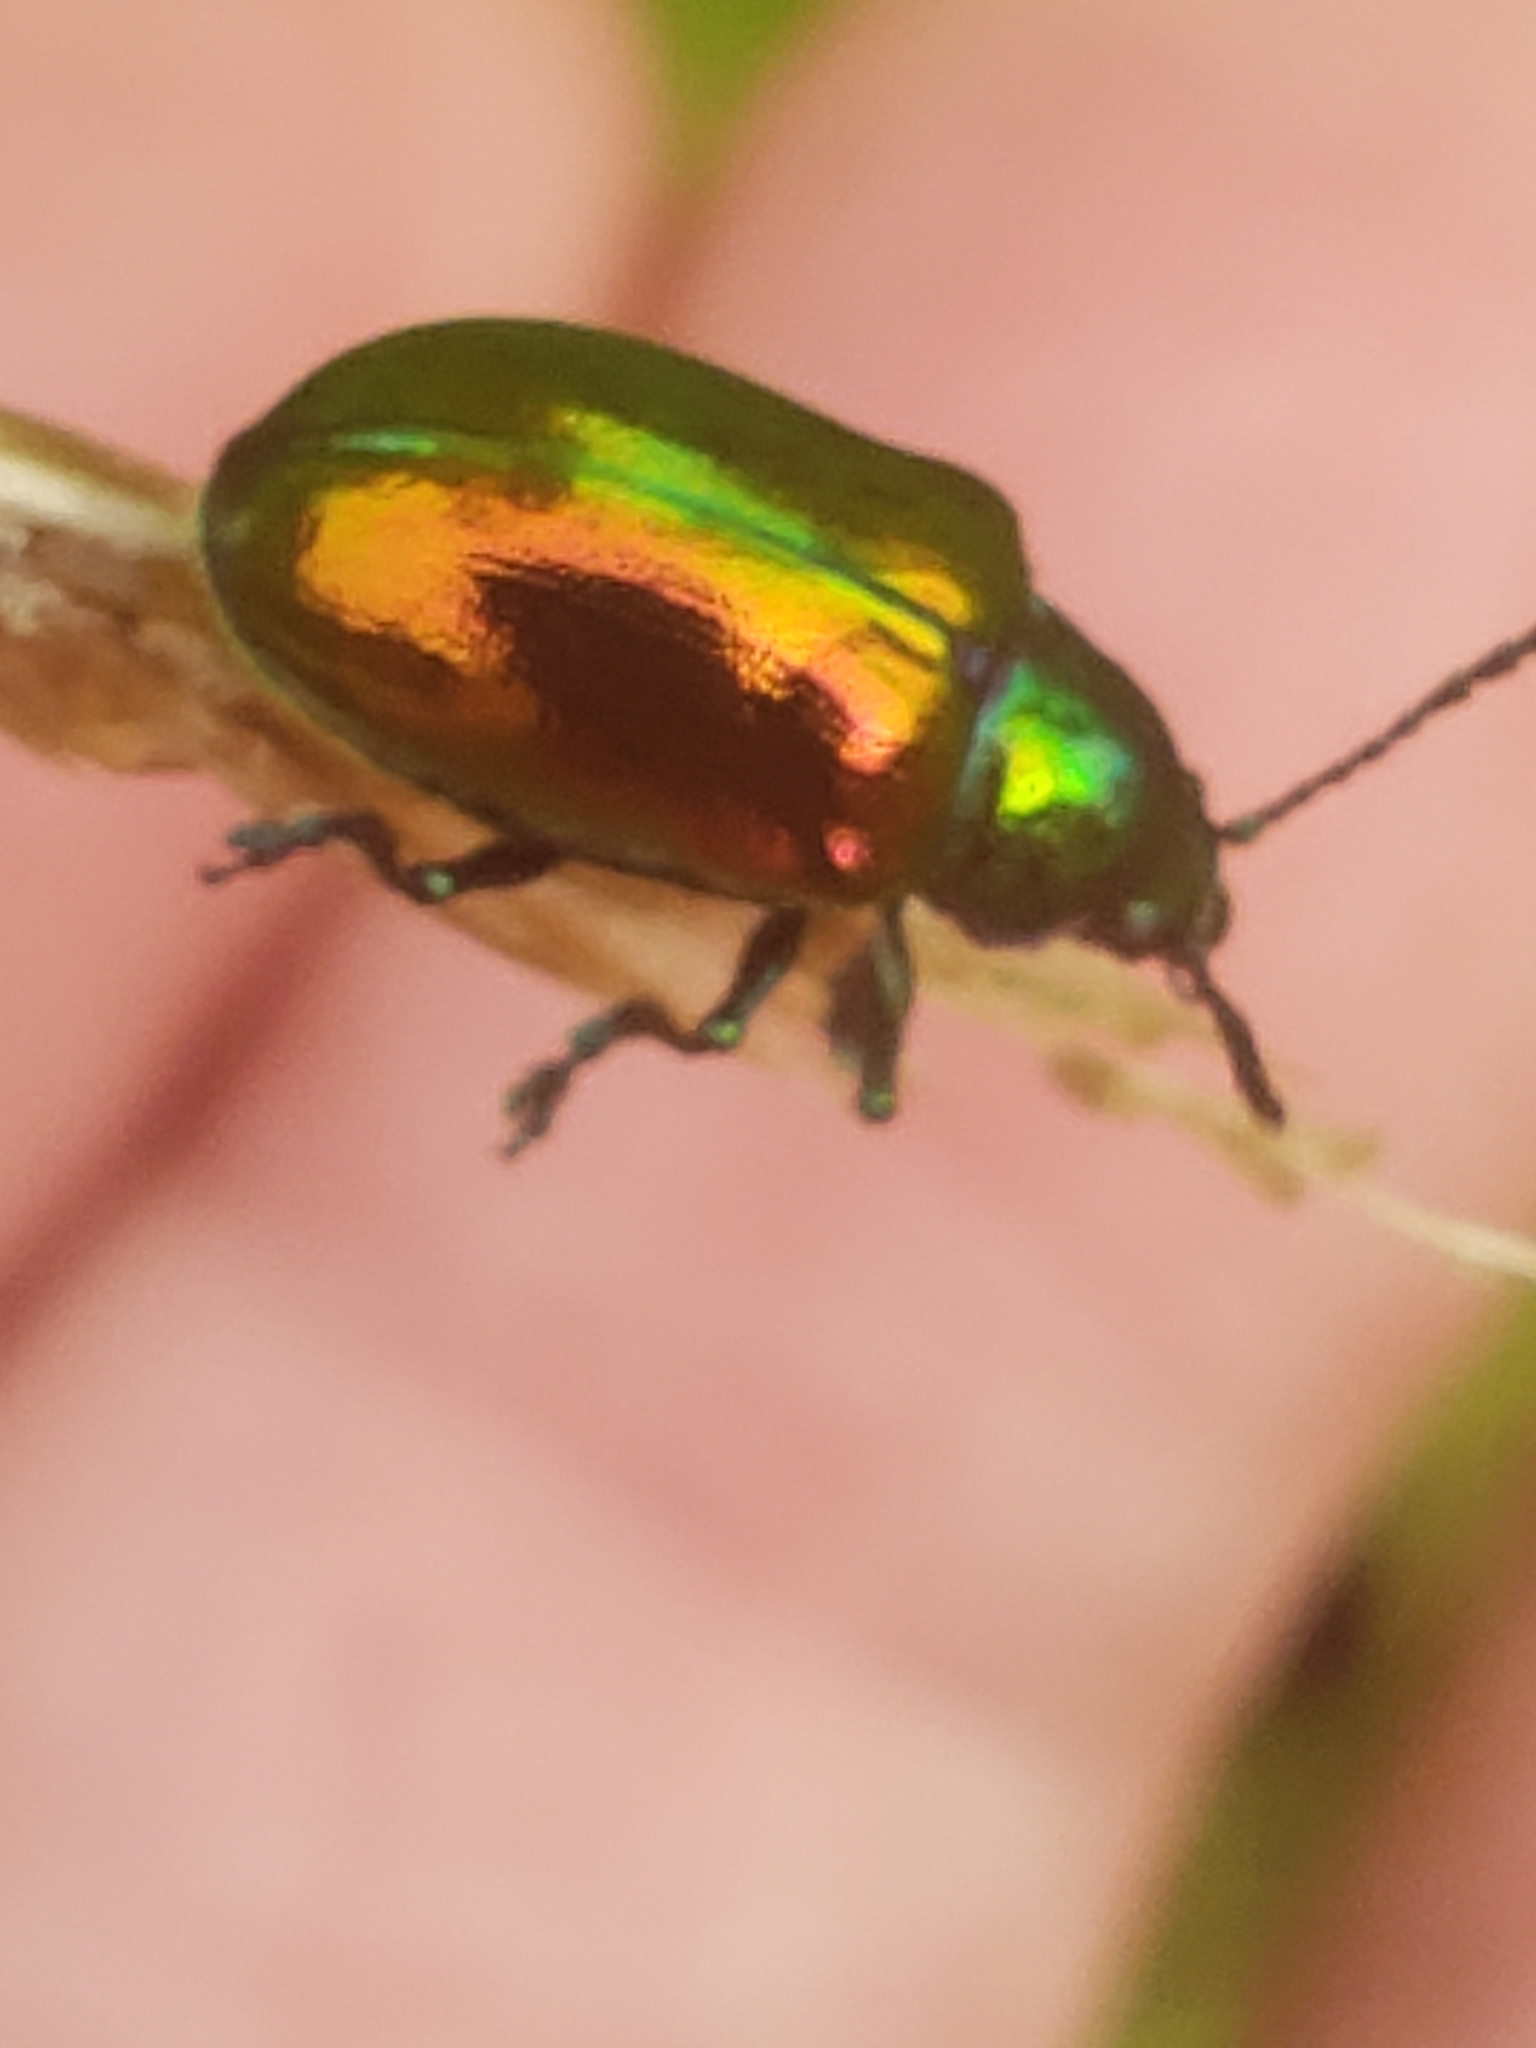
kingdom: Animalia
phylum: Arthropoda
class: Insecta
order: Coleoptera
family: Chrysomelidae
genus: Chrysochus
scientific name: Chrysochus auratus
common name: Dogbane leaf beetle
